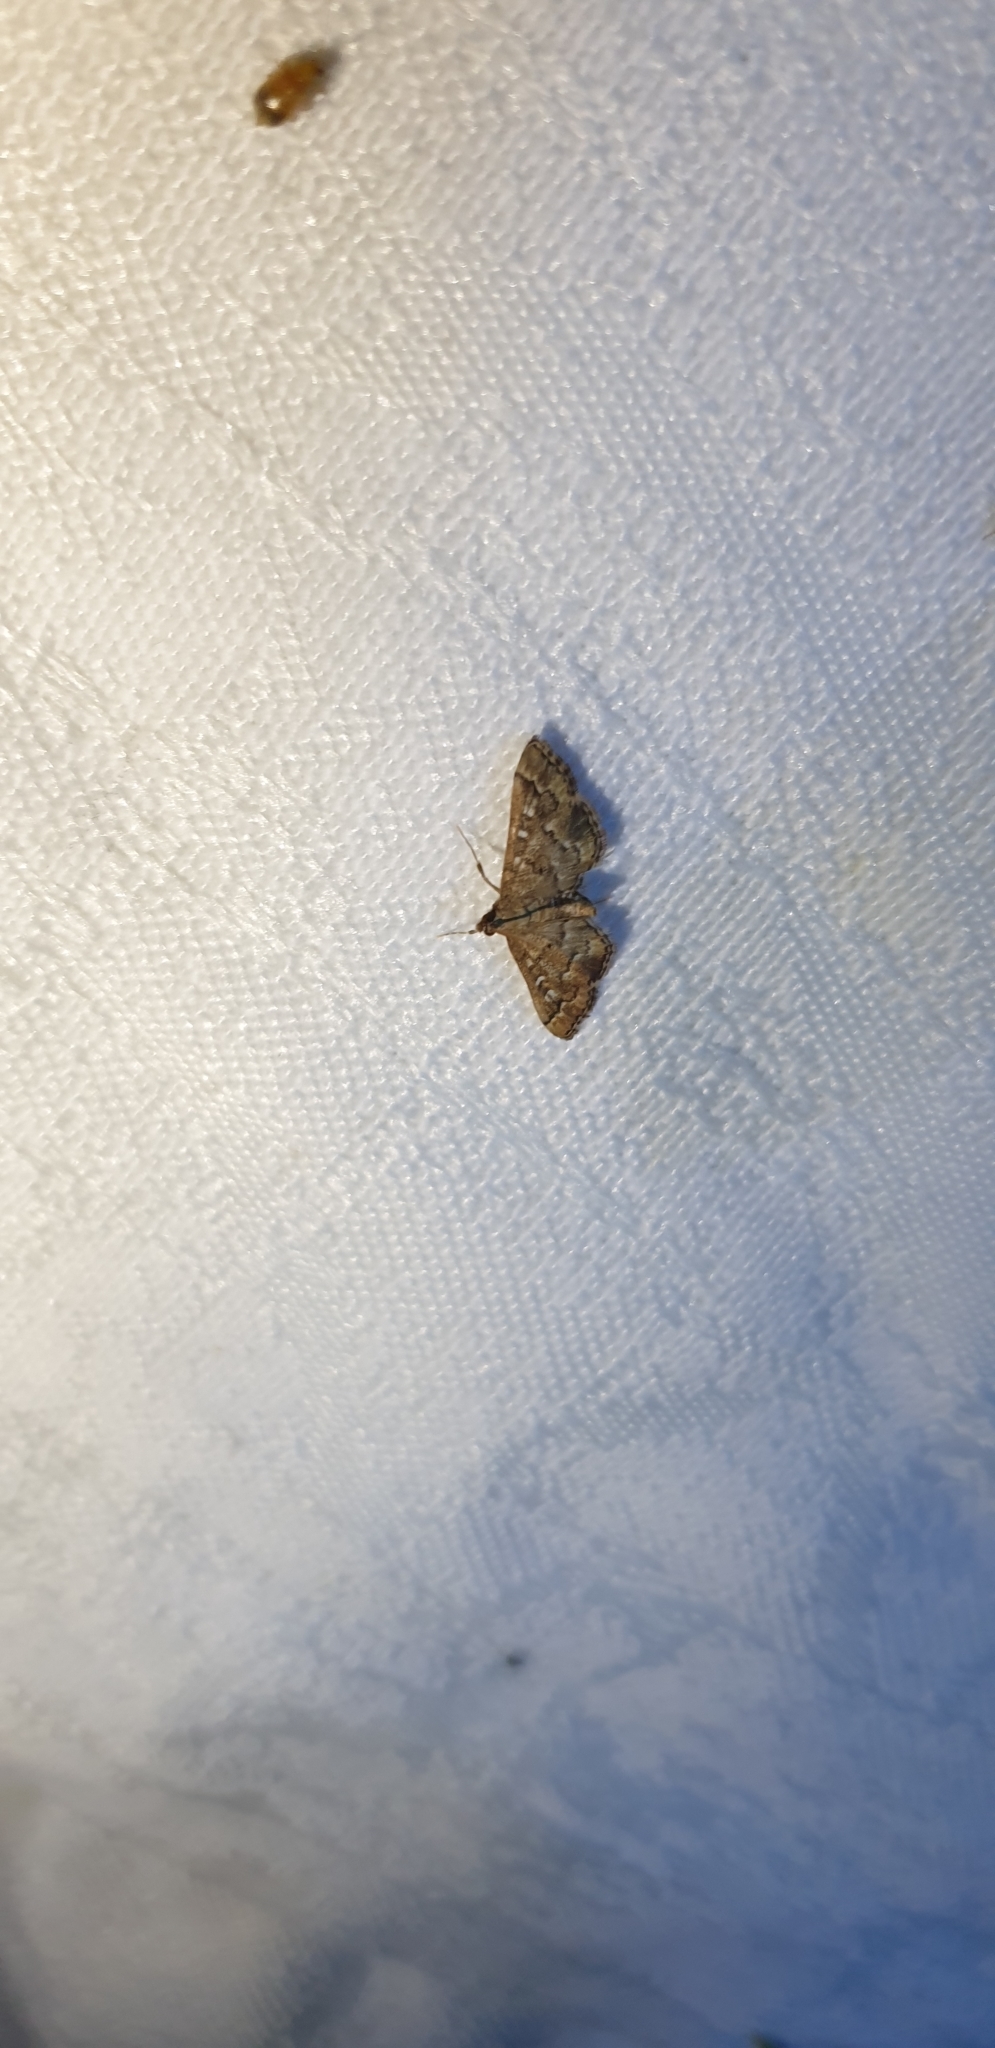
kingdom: Animalia
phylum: Arthropoda
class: Insecta
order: Lepidoptera
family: Crambidae
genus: Nacoleia
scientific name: Nacoleia rhoeoalis
